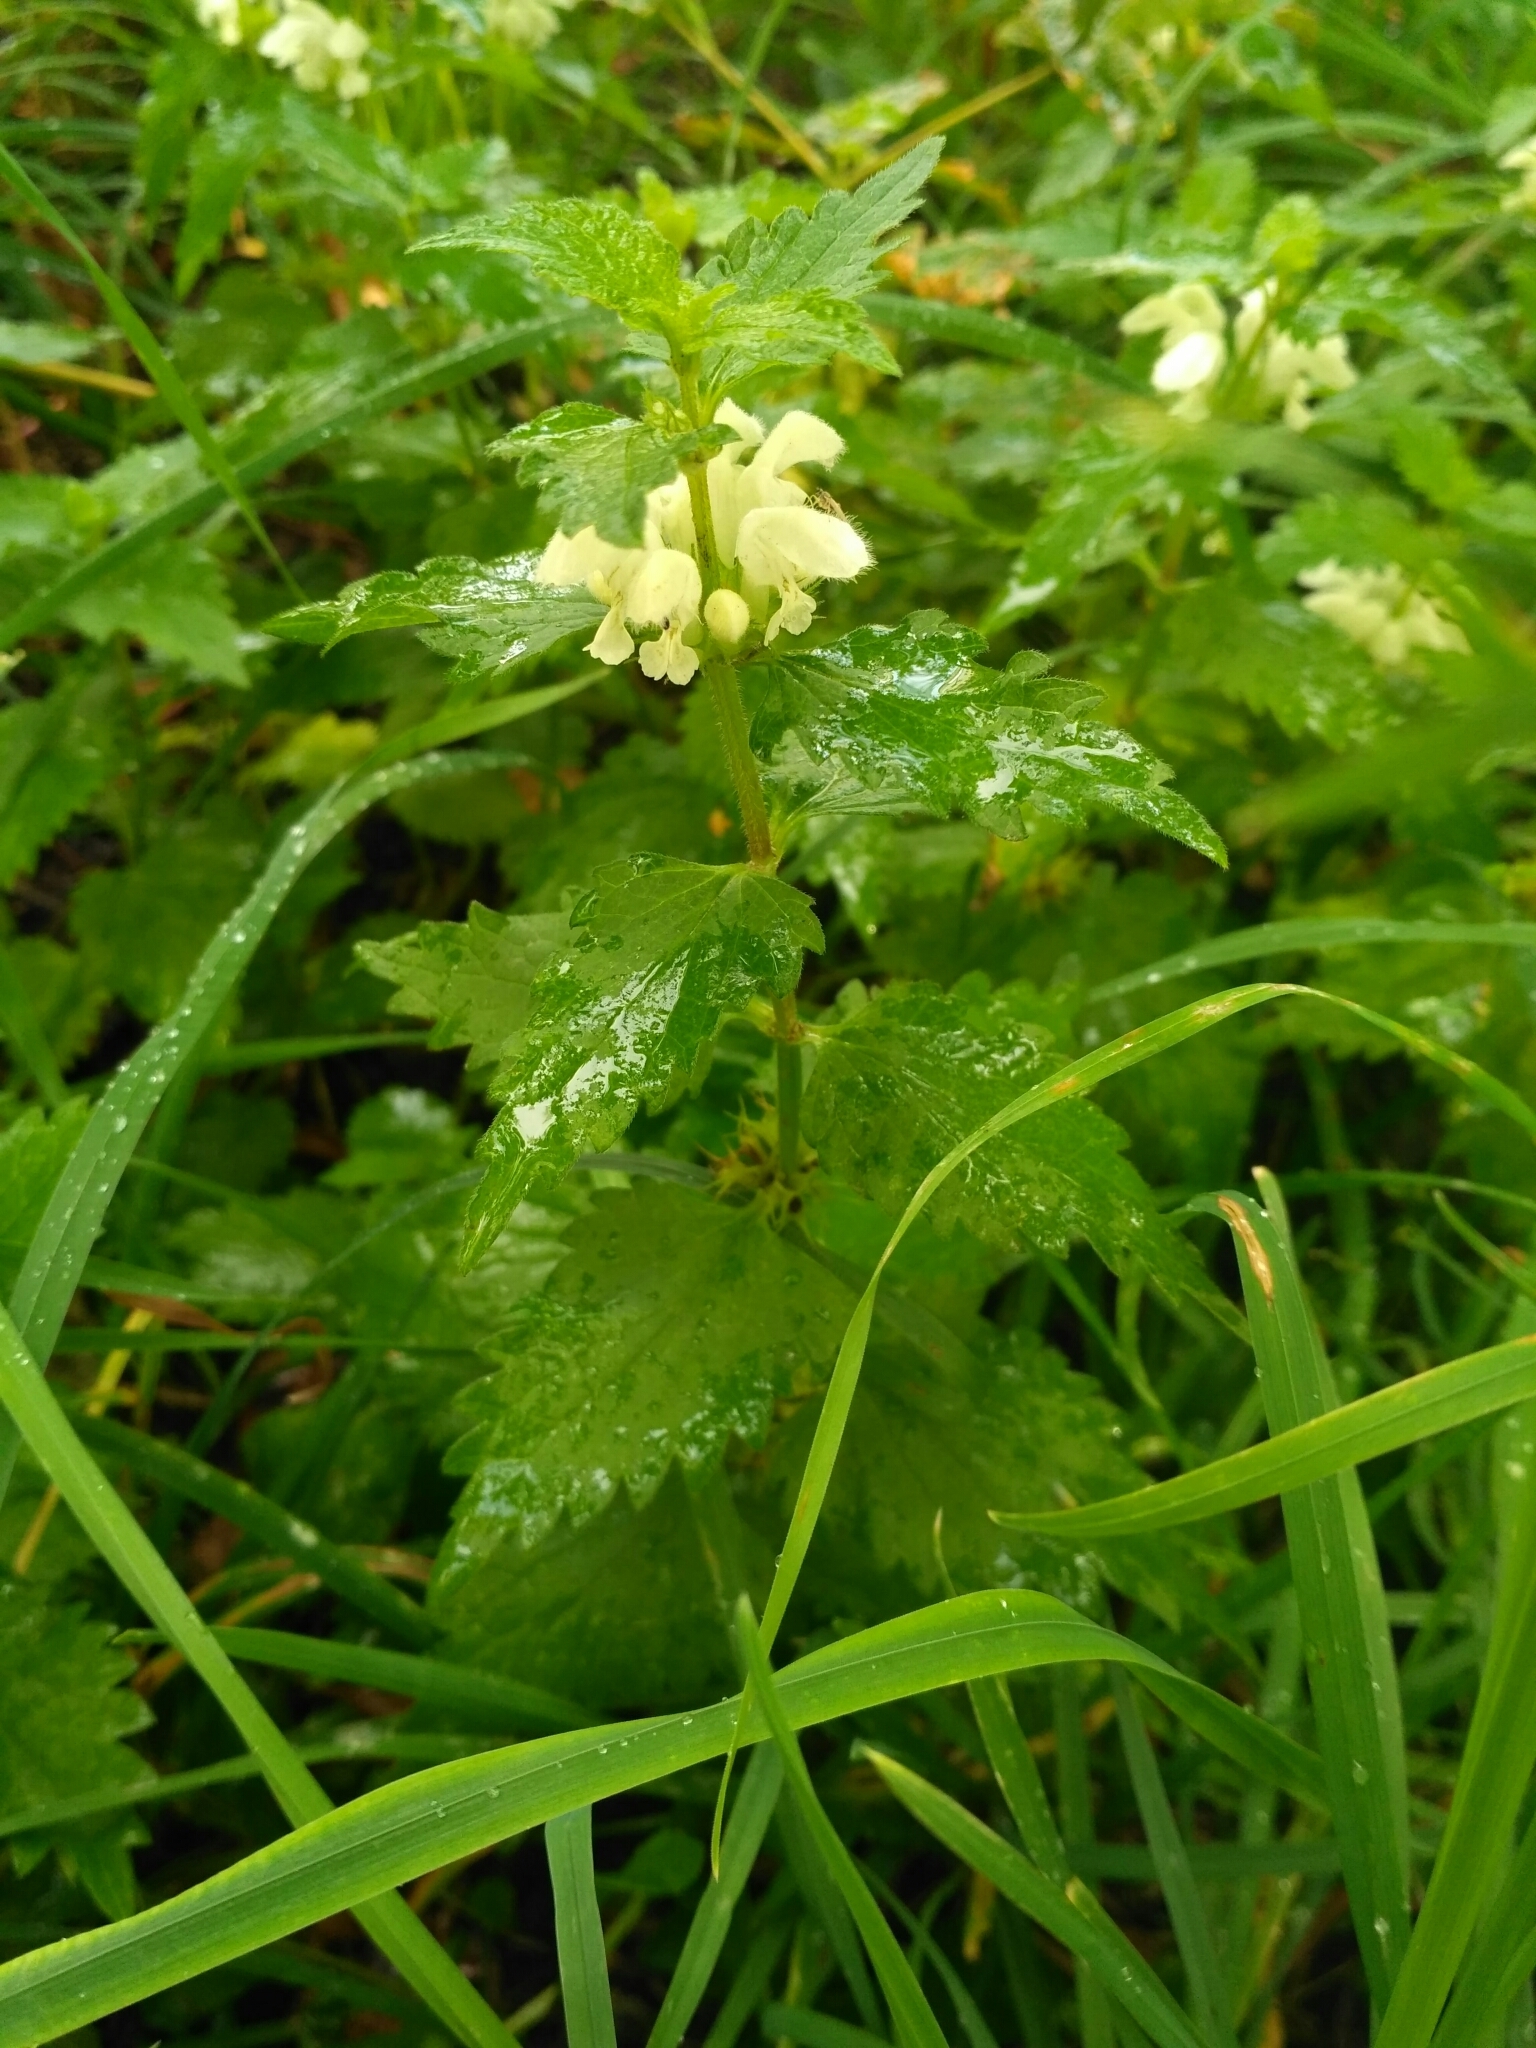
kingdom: Plantae
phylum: Tracheophyta
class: Magnoliopsida
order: Lamiales
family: Lamiaceae
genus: Lamium
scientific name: Lamium album
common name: White dead-nettle
